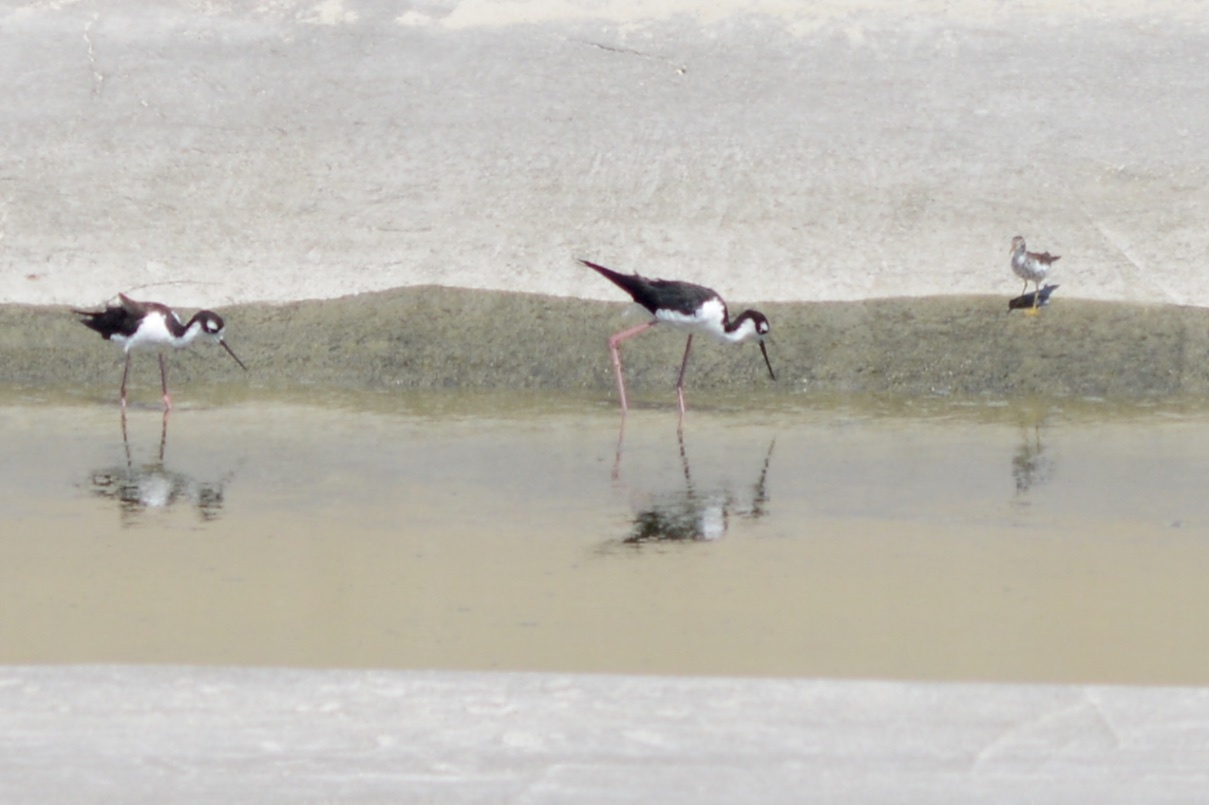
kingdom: Animalia
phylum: Chordata
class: Aves
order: Charadriiformes
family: Recurvirostridae
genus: Himantopus
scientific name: Himantopus mexicanus
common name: Black-necked stilt
